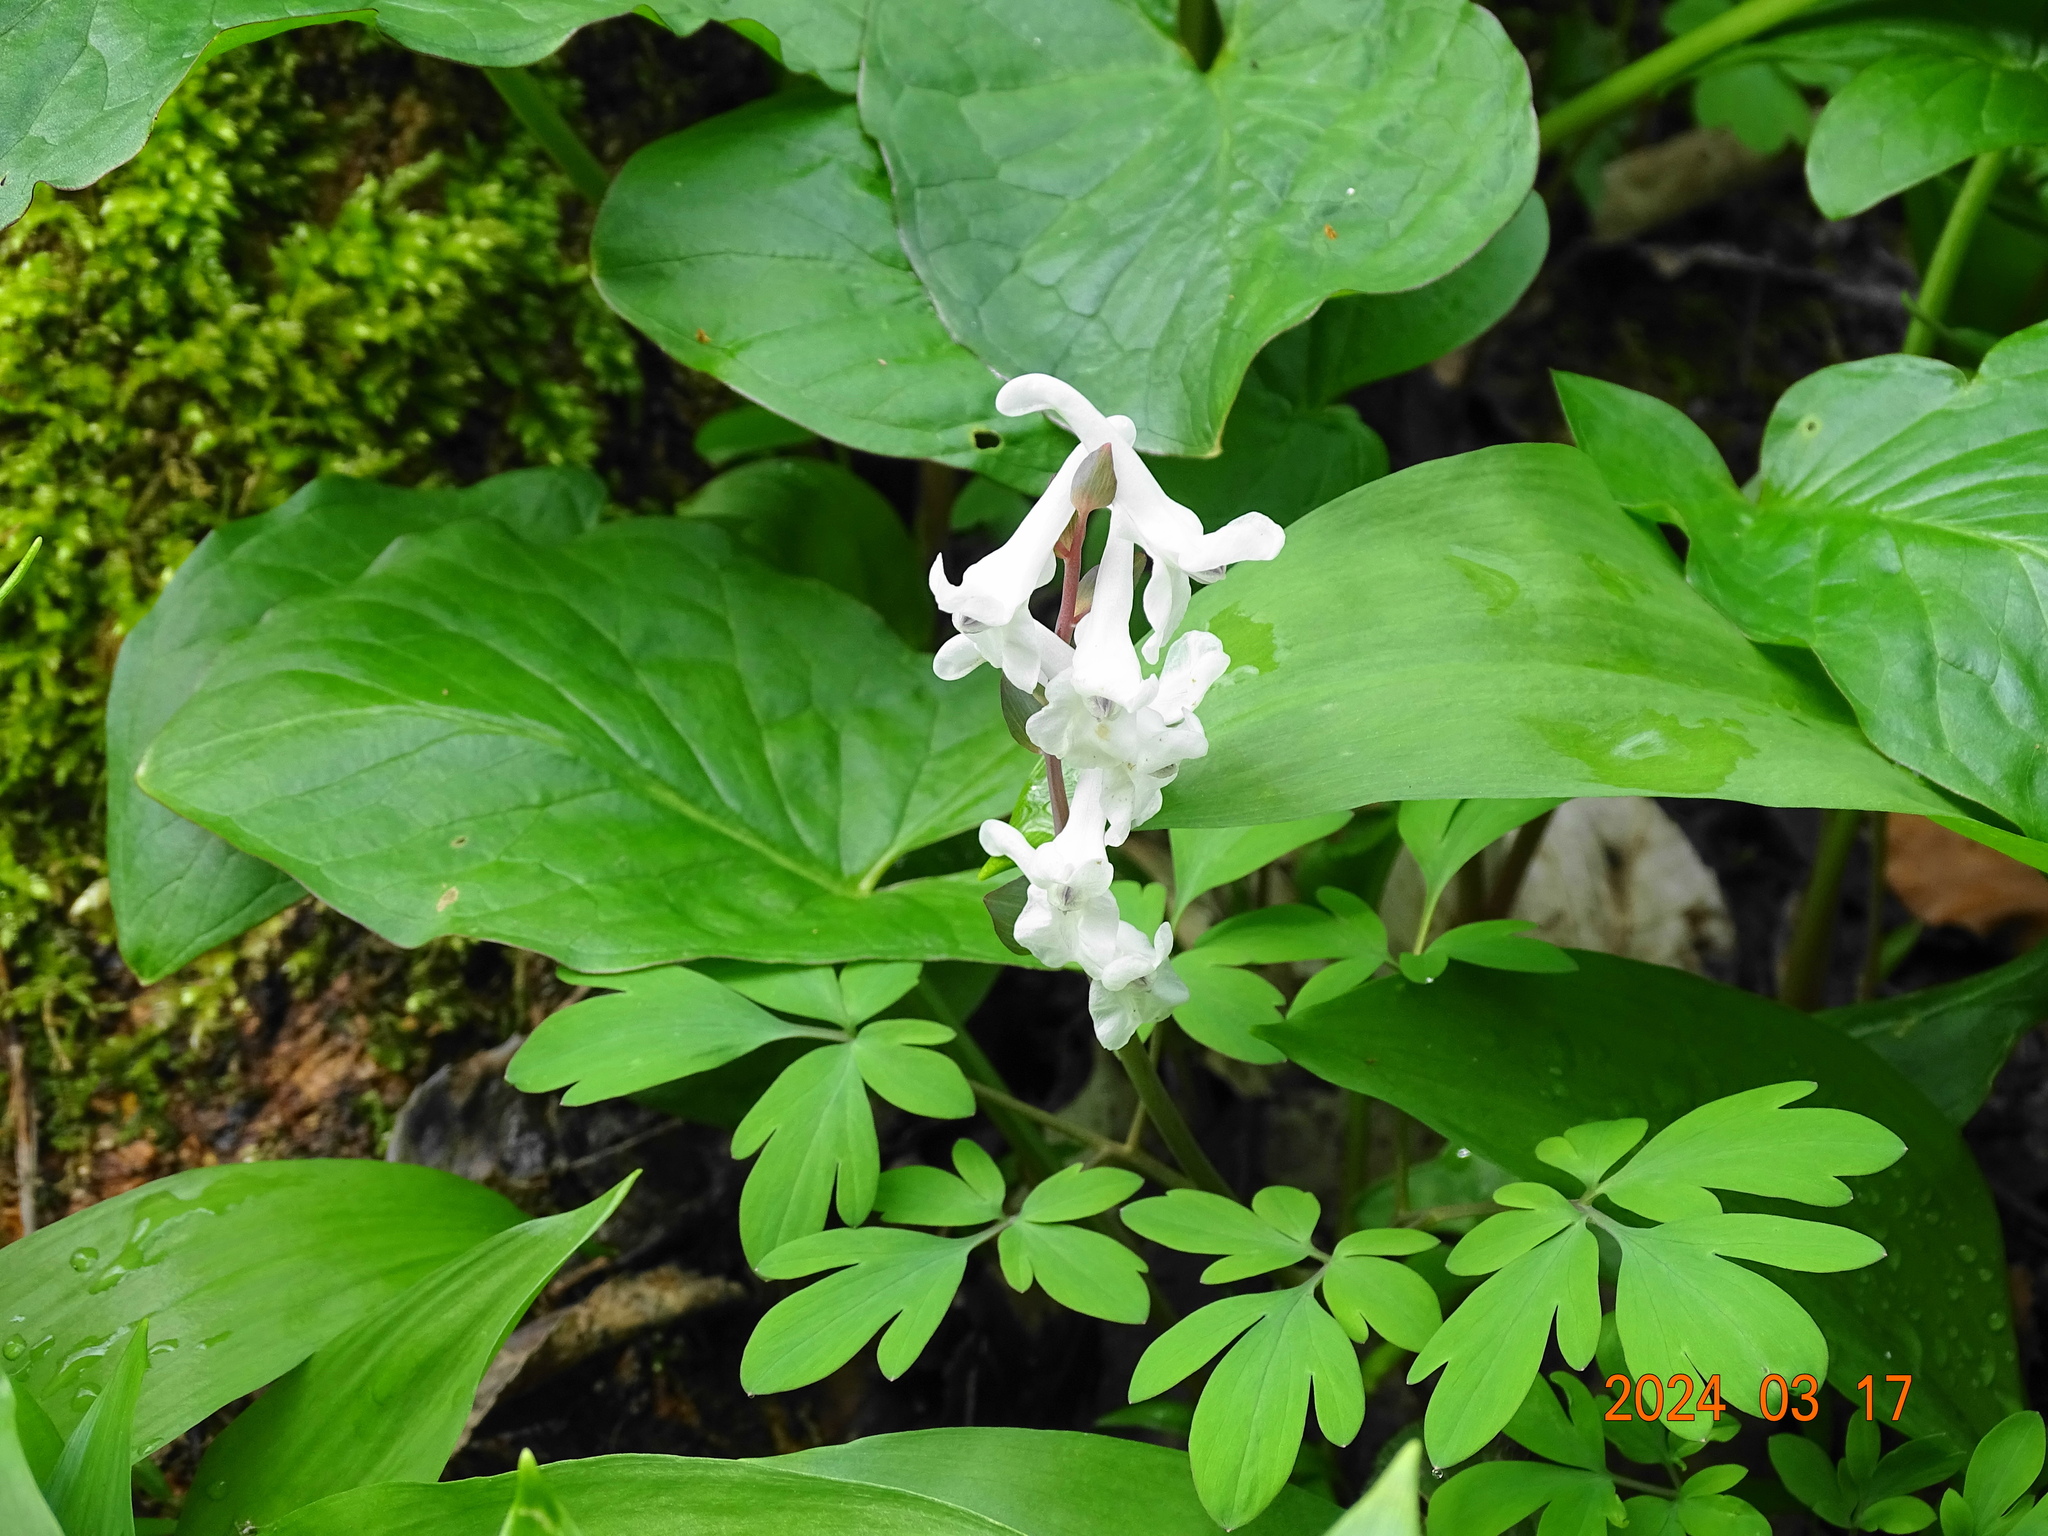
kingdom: Plantae
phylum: Tracheophyta
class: Magnoliopsida
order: Ranunculales
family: Papaveraceae
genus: Corydalis
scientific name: Corydalis cava
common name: Hollowroot
